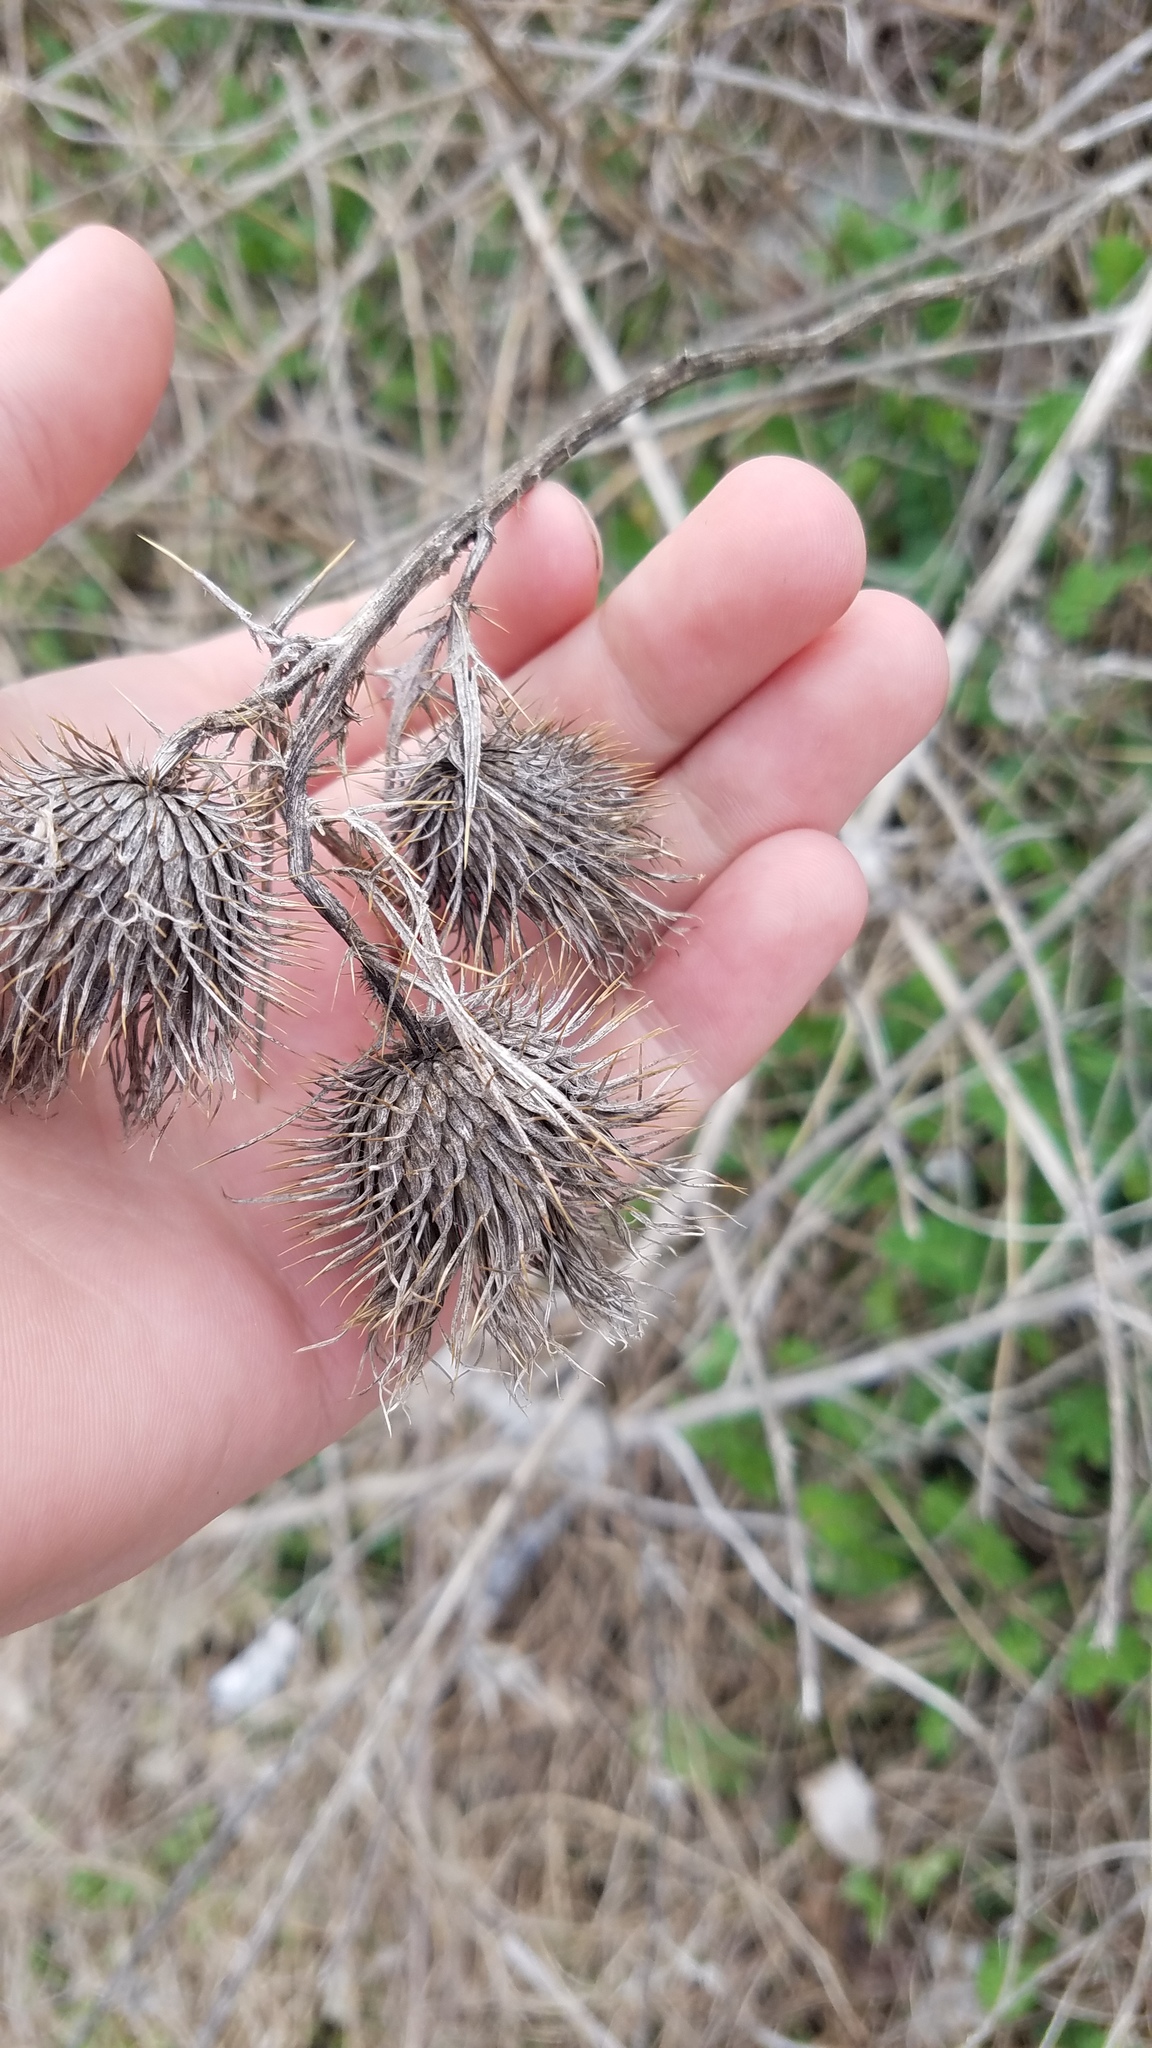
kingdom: Plantae
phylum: Tracheophyta
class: Magnoliopsida
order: Asterales
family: Asteraceae
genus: Cirsium
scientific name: Cirsium vulgare
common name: Bull thistle
